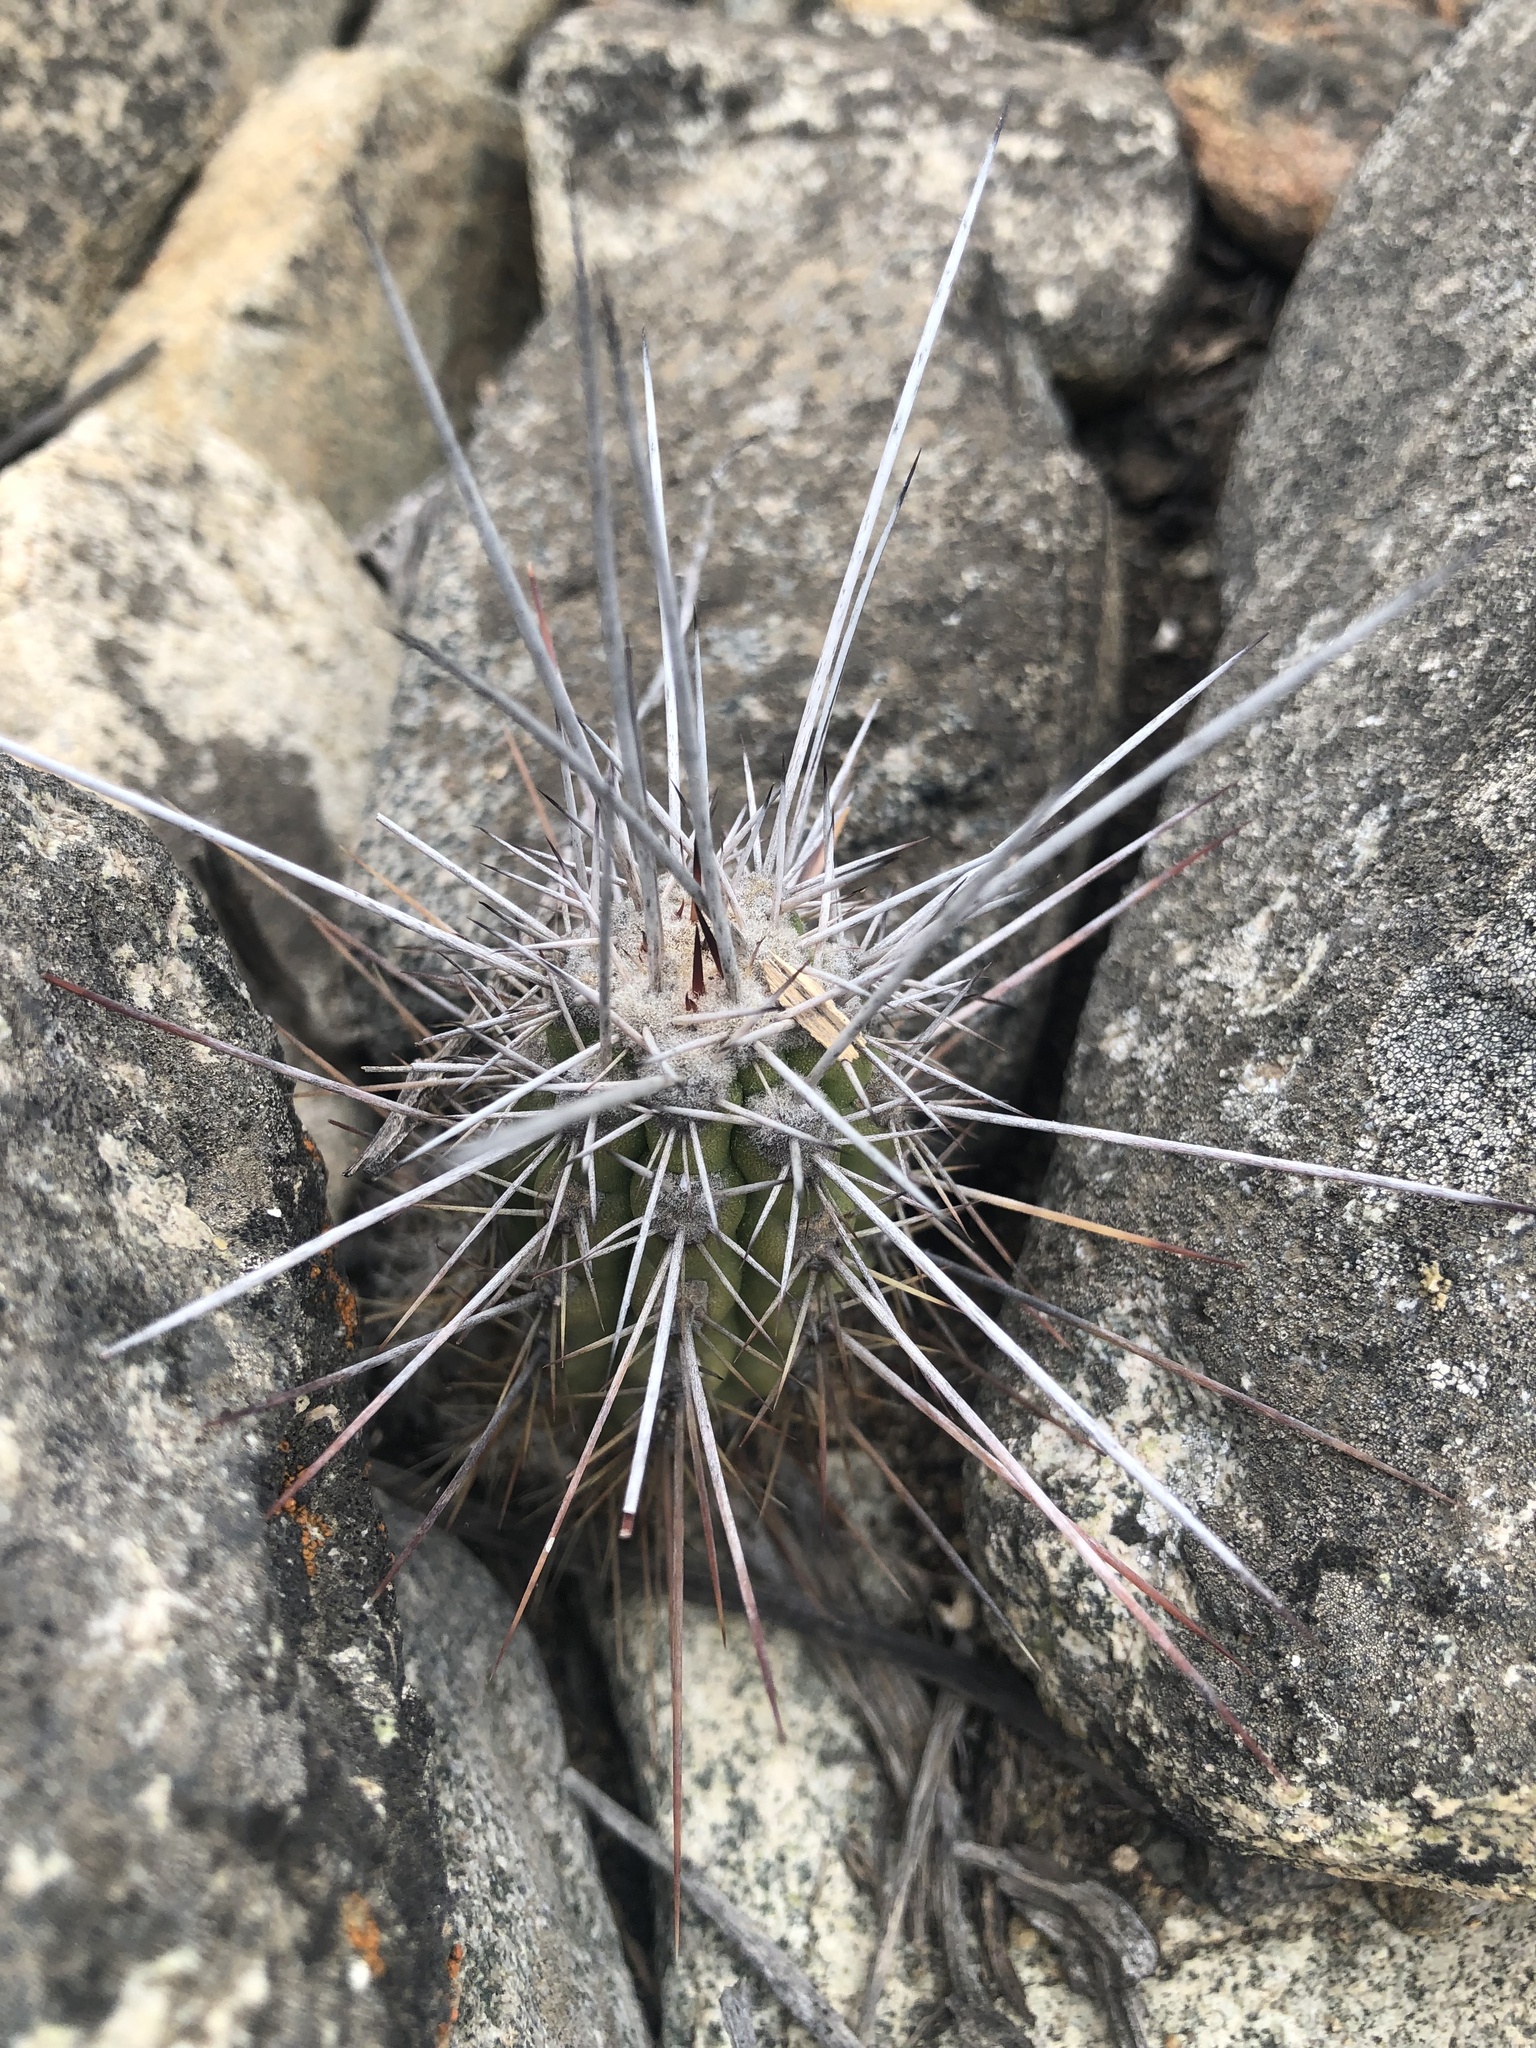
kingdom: Plantae
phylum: Tracheophyta
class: Magnoliopsida
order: Caryophyllales
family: Cactaceae
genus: Leucostele
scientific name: Leucostele deserticola
